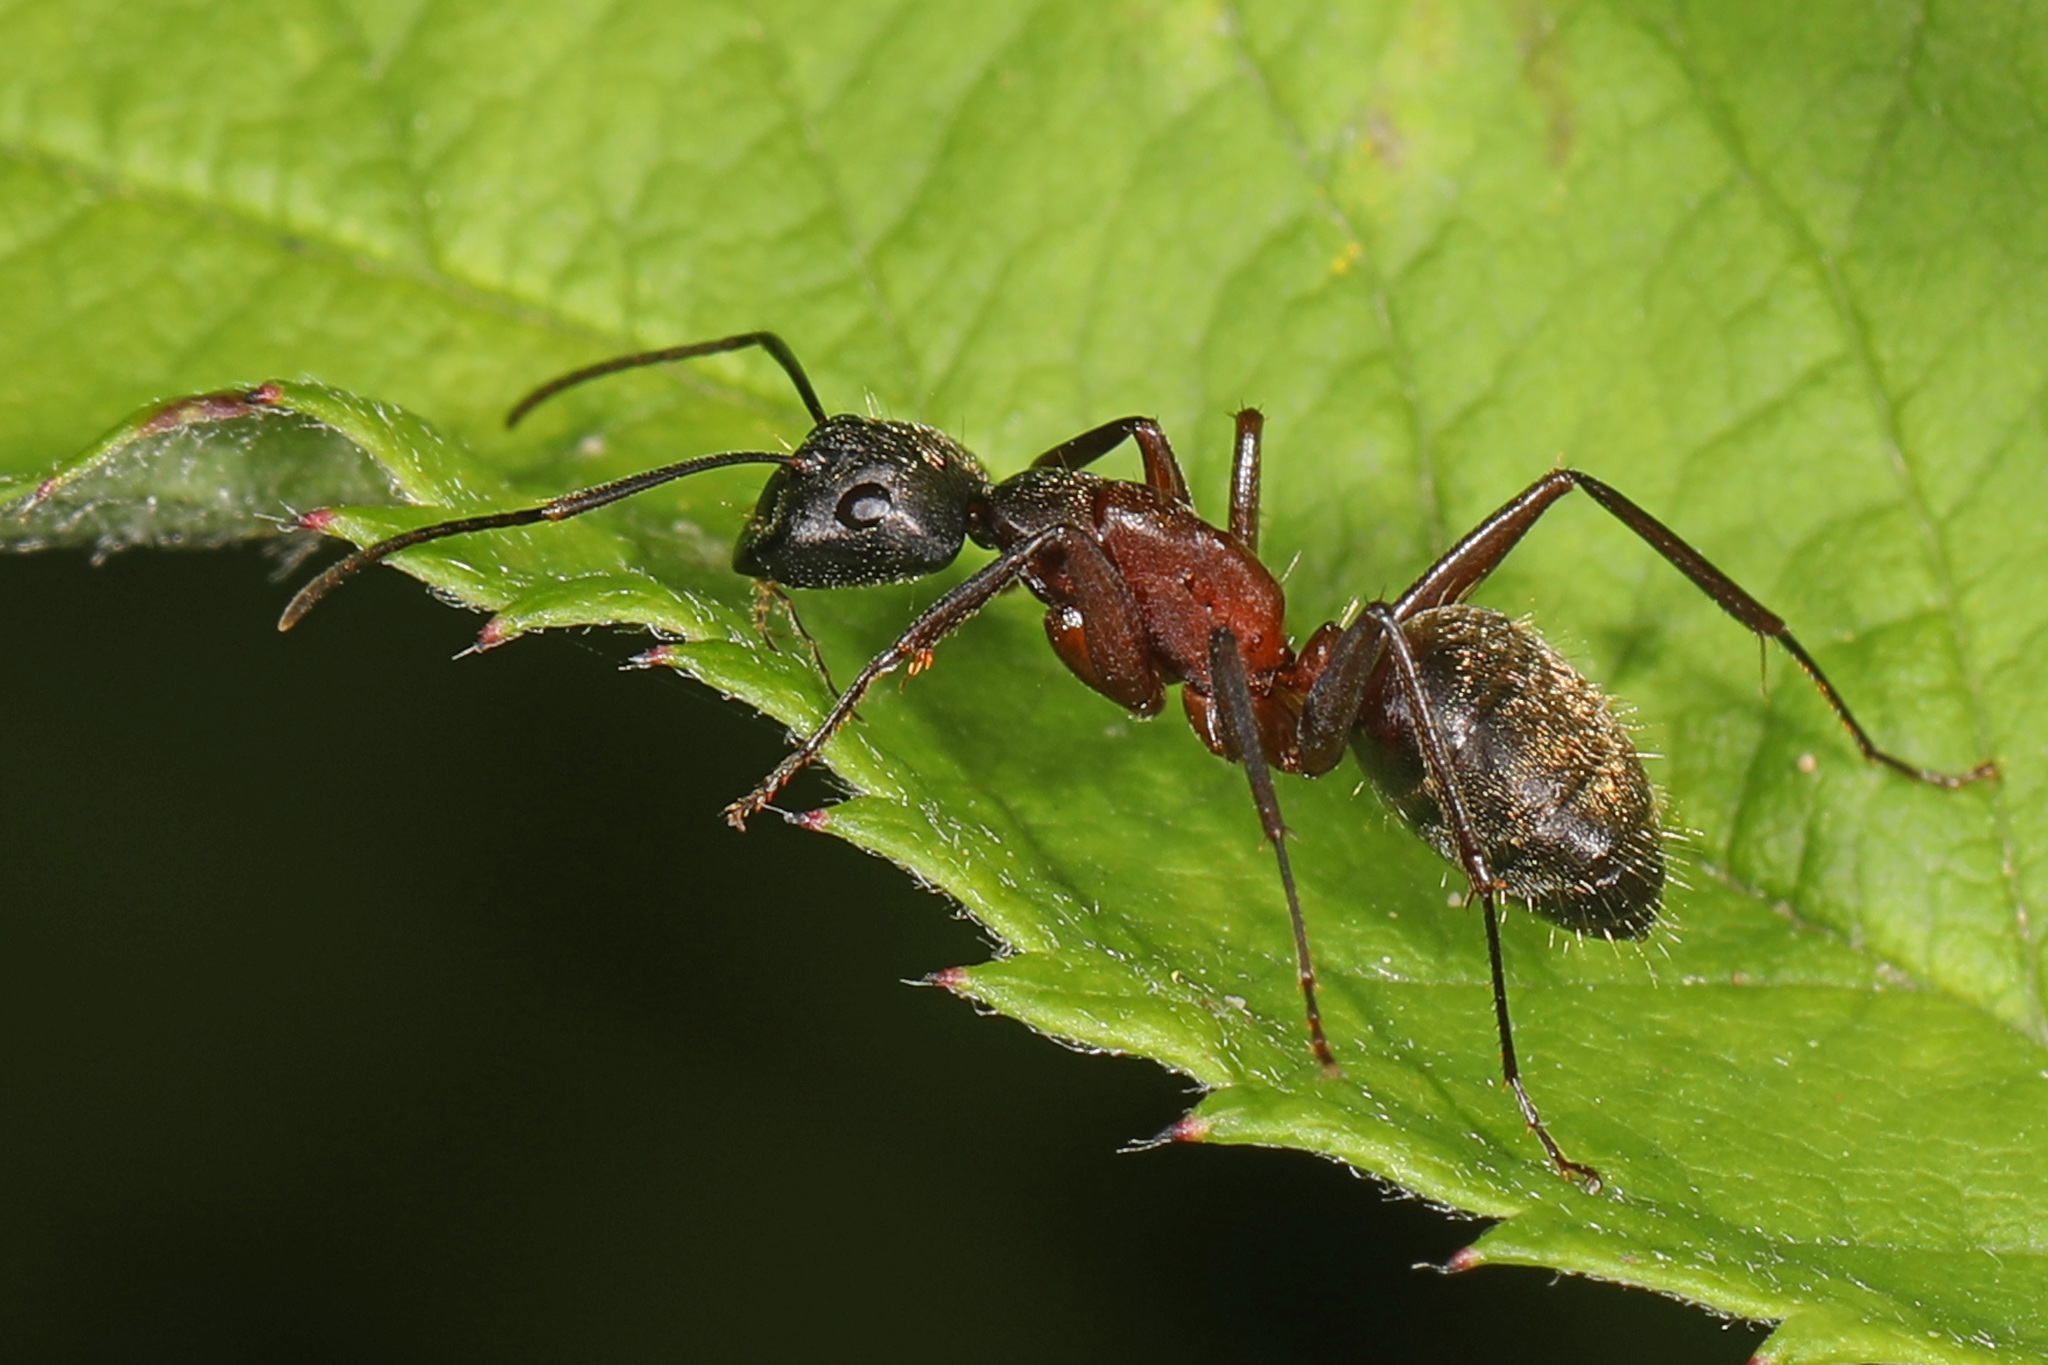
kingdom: Animalia
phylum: Arthropoda
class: Insecta
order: Hymenoptera
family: Formicidae
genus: Camponotus
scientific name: Camponotus chromaiodes
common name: Red carpenter ant
